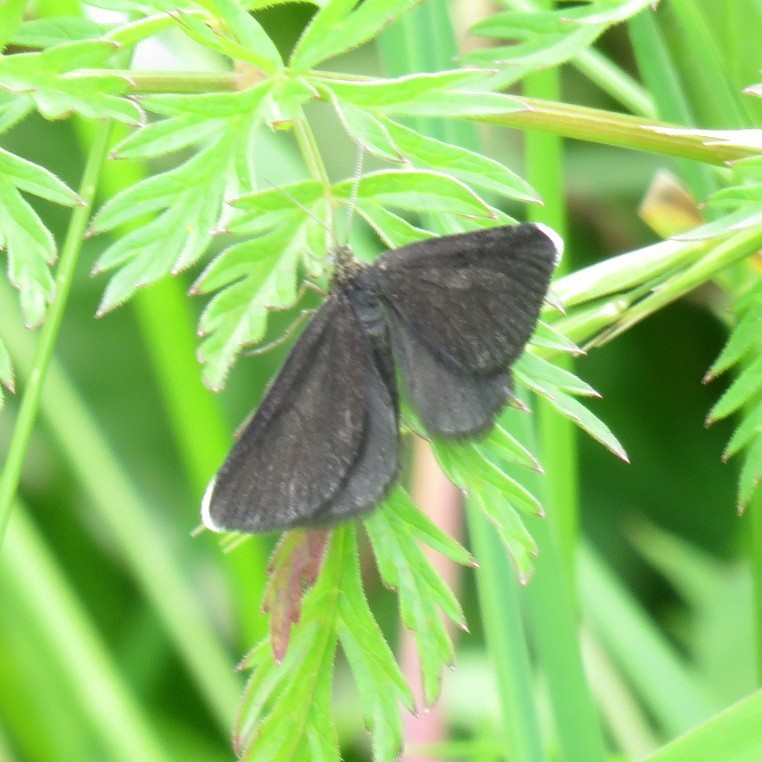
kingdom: Animalia
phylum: Arthropoda
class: Insecta
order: Lepidoptera
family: Geometridae
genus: Odezia
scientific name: Odezia atrata
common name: Chimney sweeper
